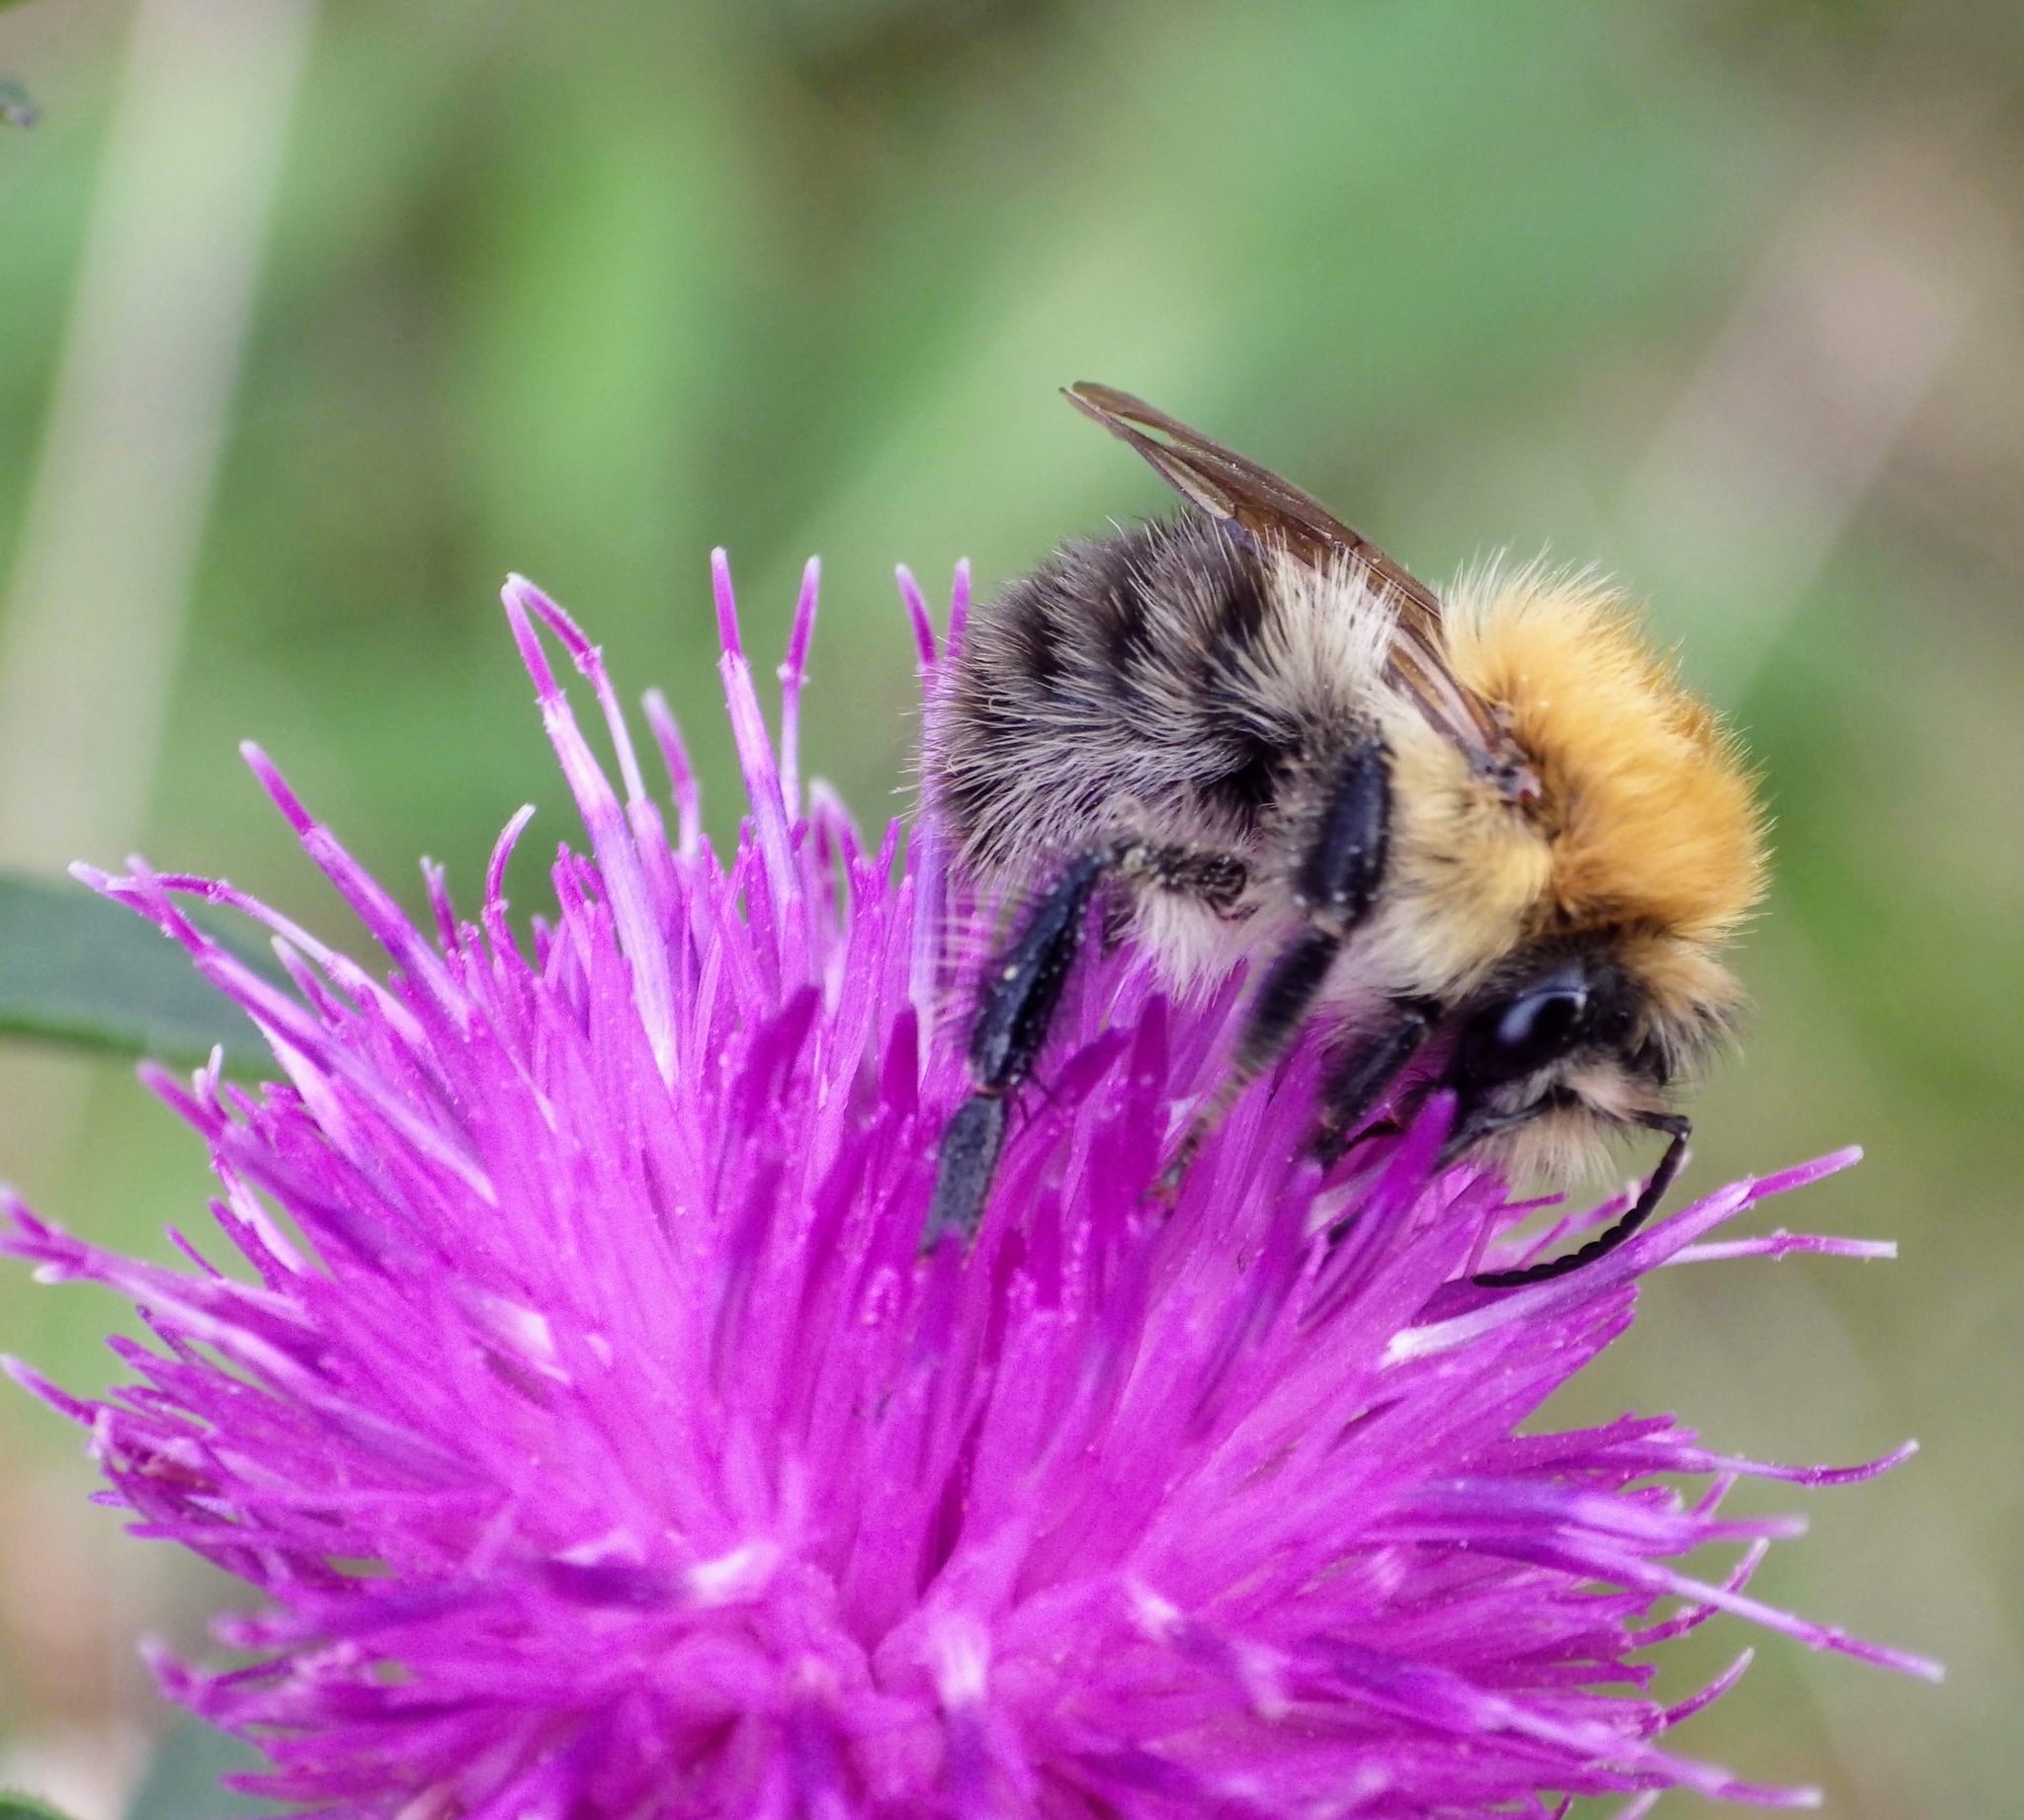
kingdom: Animalia
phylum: Arthropoda
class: Insecta
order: Hymenoptera
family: Apidae
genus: Bombus
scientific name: Bombus pascuorum
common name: Common carder bee
